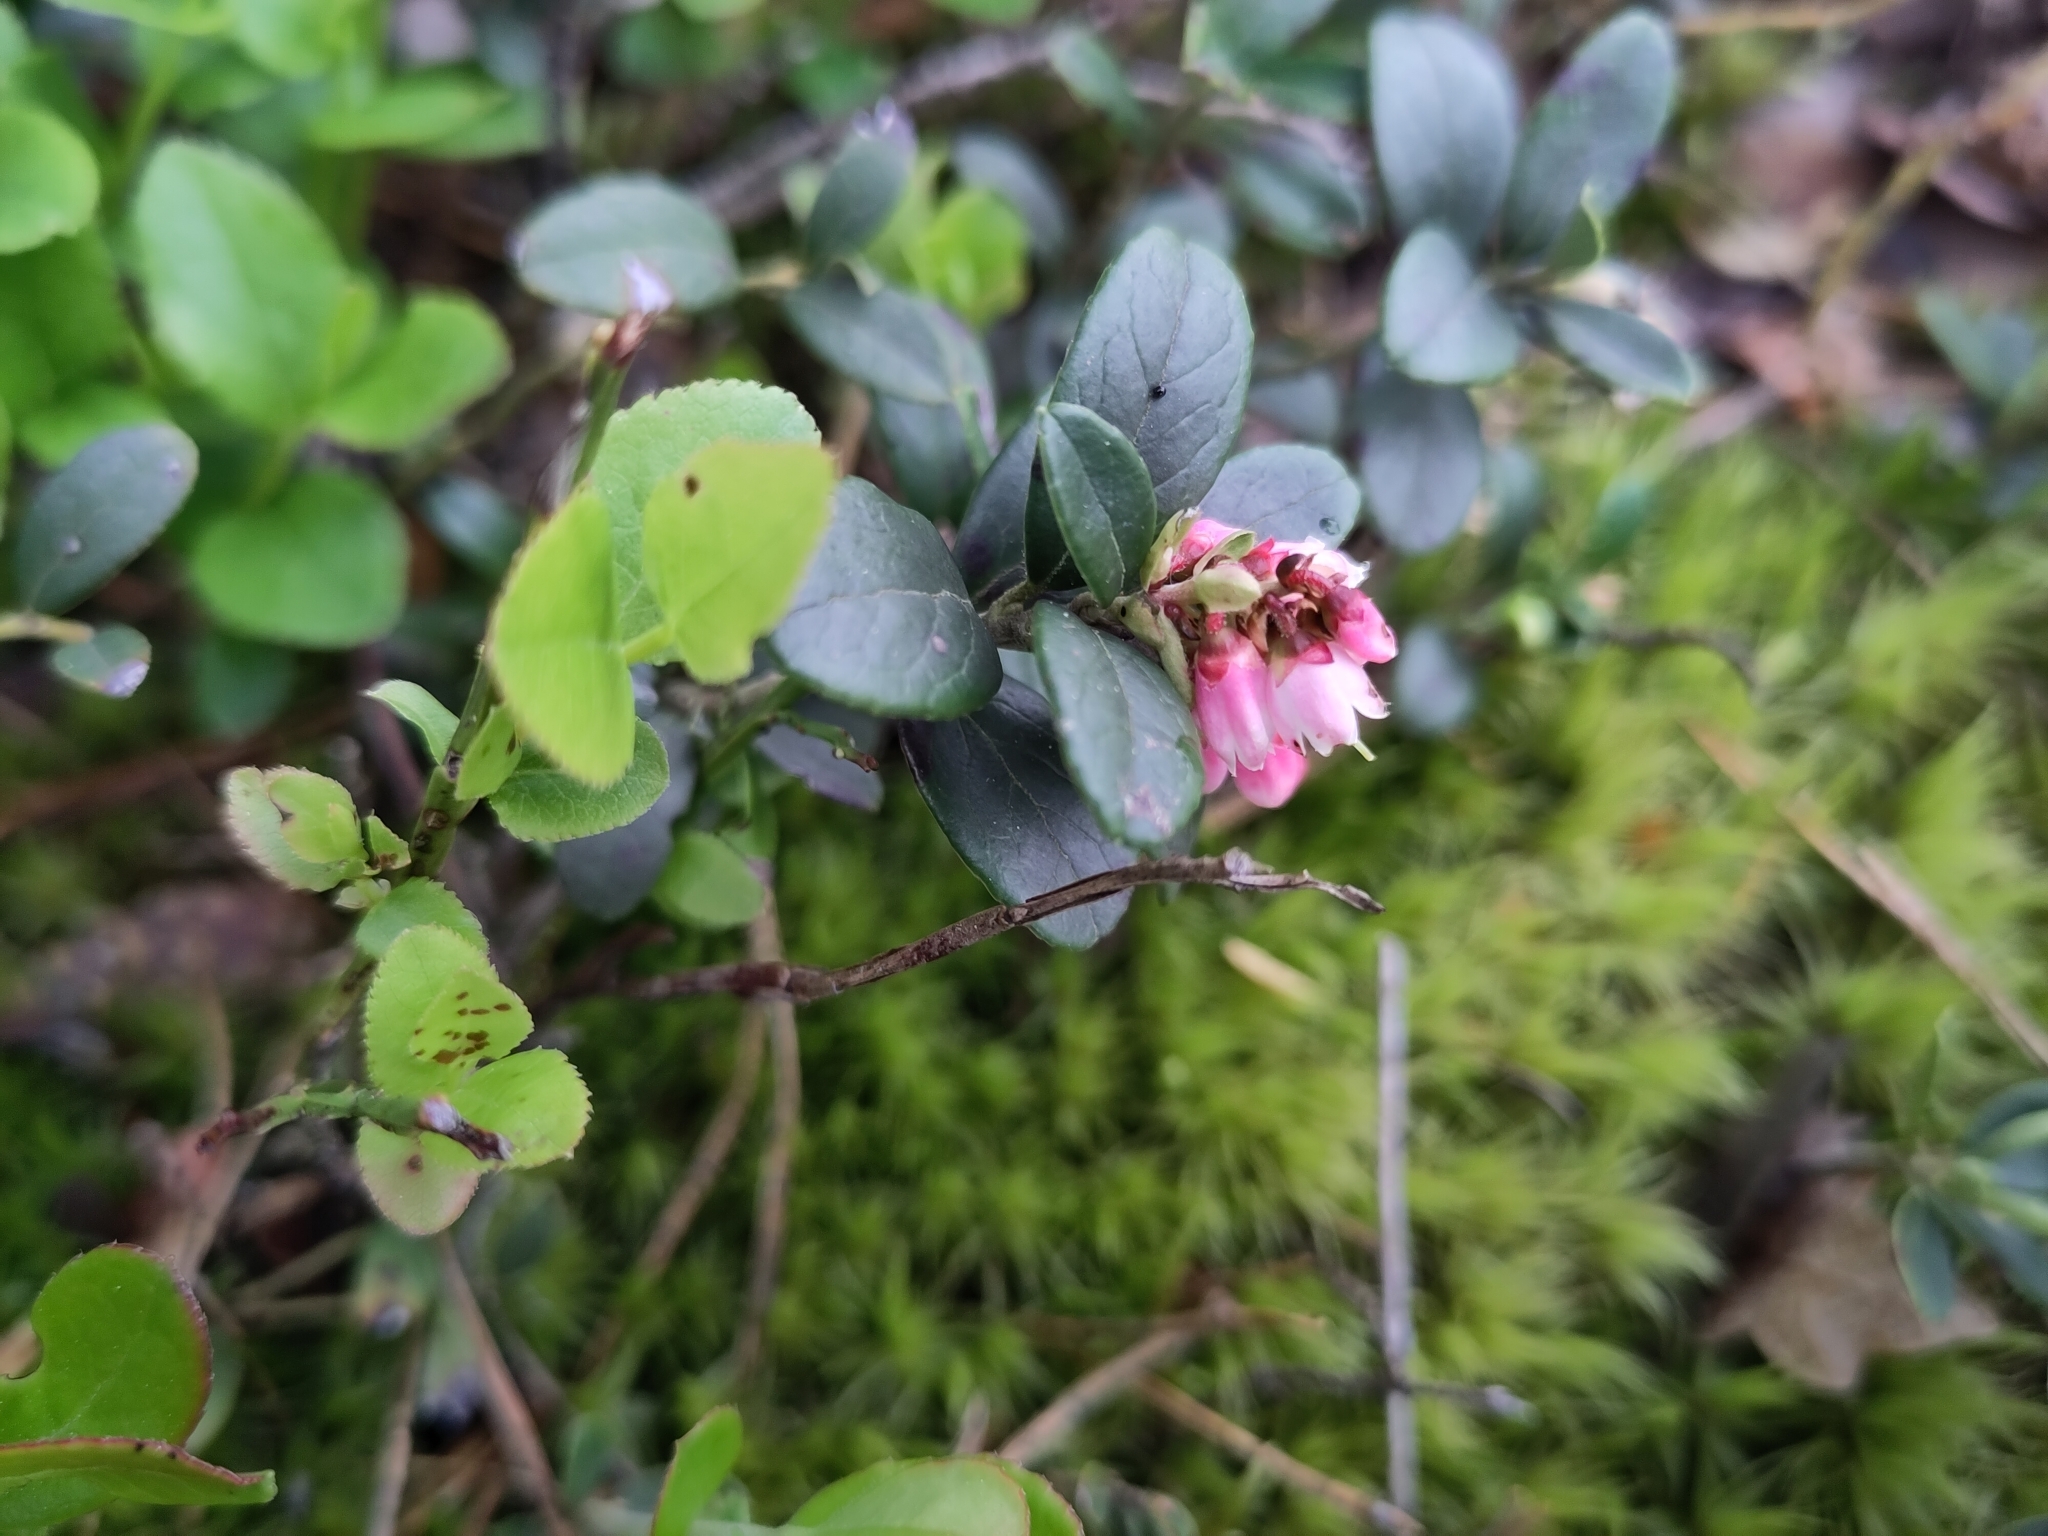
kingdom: Plantae
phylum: Tracheophyta
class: Magnoliopsida
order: Ericales
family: Ericaceae
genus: Vaccinium
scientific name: Vaccinium vitis-idaea
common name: Cowberry
